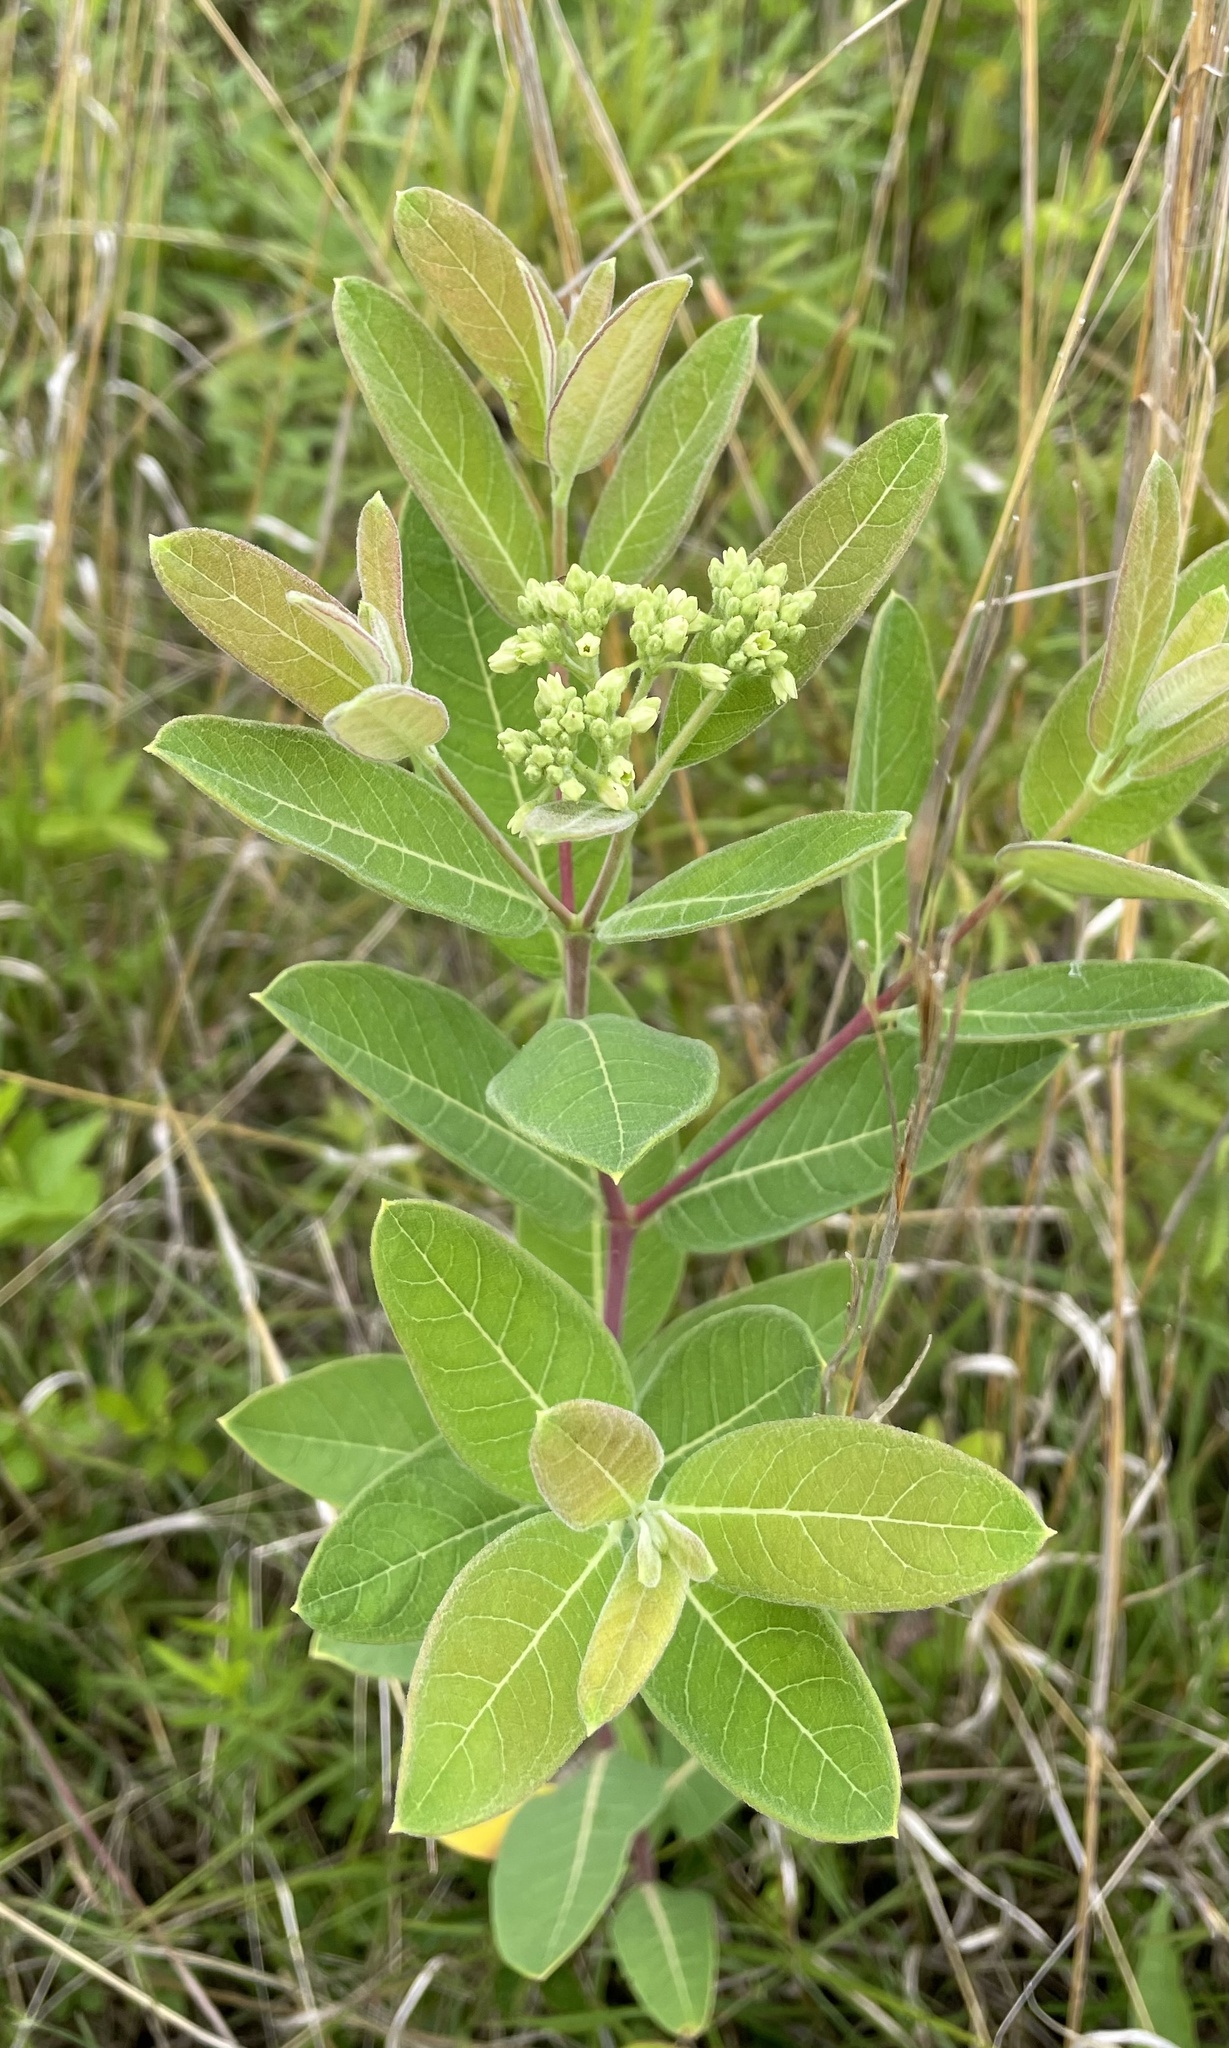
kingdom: Plantae
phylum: Tracheophyta
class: Magnoliopsida
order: Gentianales
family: Apocynaceae
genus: Apocynum
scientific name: Apocynum cannabinum
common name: Hemp dogbane
